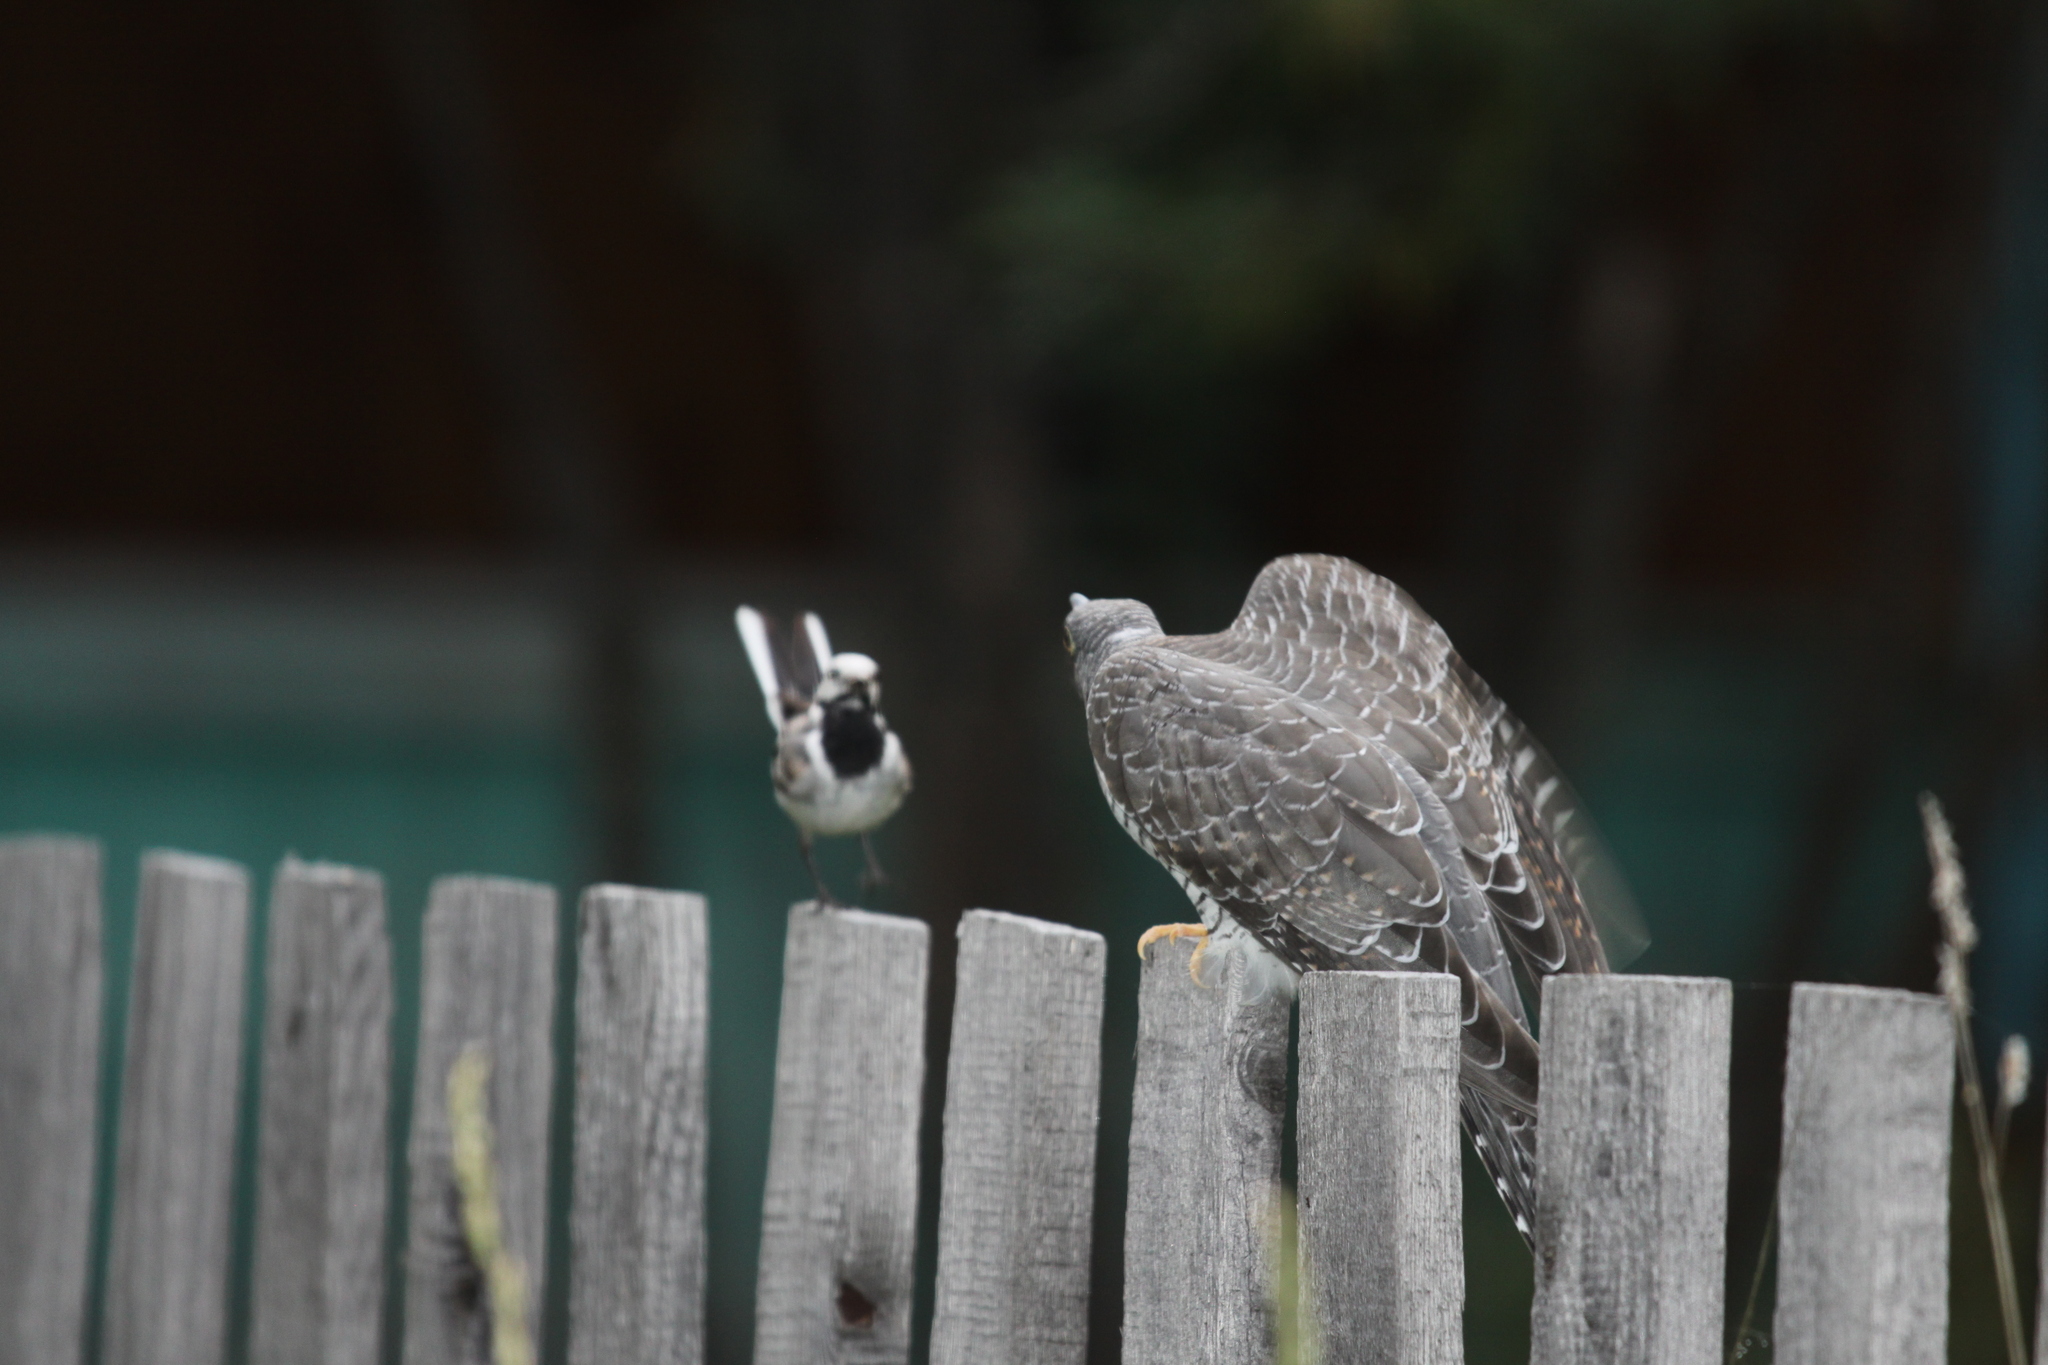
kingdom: Animalia
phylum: Chordata
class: Aves
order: Cuculiformes
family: Cuculidae
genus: Cuculus
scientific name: Cuculus canorus
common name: Common cuckoo
